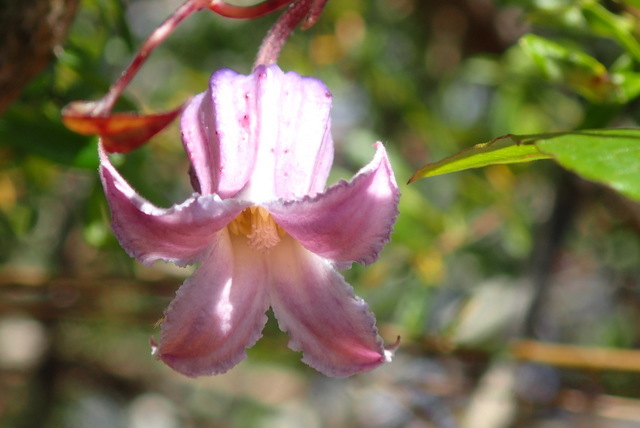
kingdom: Plantae
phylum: Tracheophyta
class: Magnoliopsida
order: Ranunculales
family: Ranunculaceae
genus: Clematis
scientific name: Clematis crispa
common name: Curly clematis
